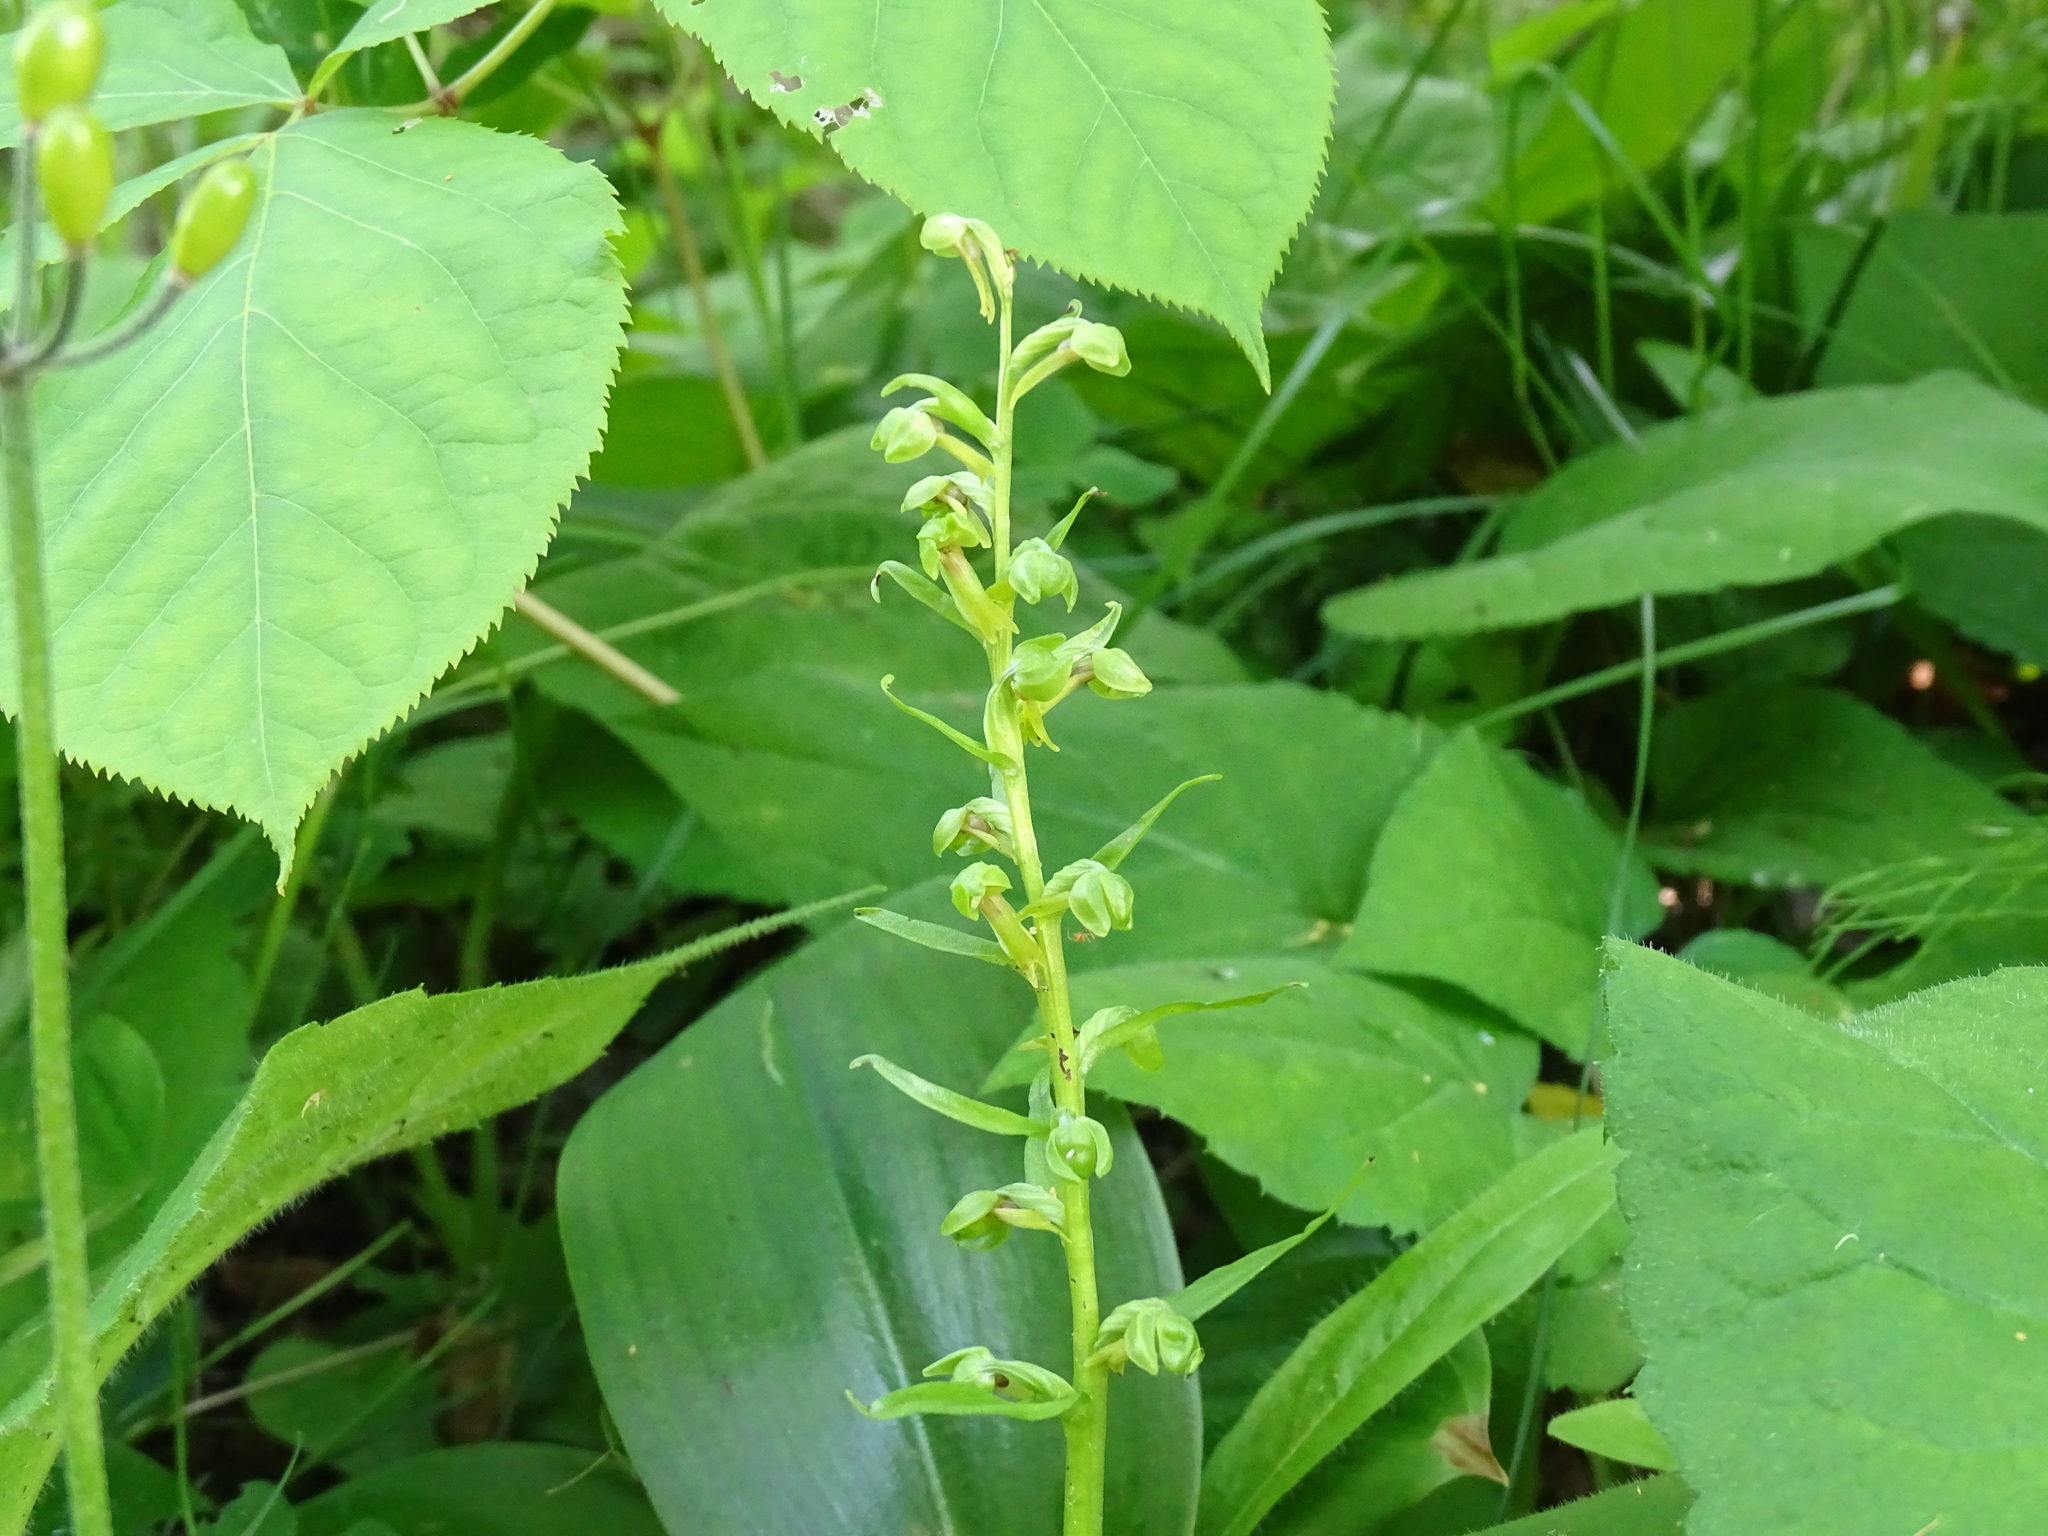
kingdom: Plantae
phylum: Tracheophyta
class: Liliopsida
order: Asparagales
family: Orchidaceae
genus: Dactylorhiza
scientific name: Dactylorhiza viridis
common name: Longbract frog orchid
